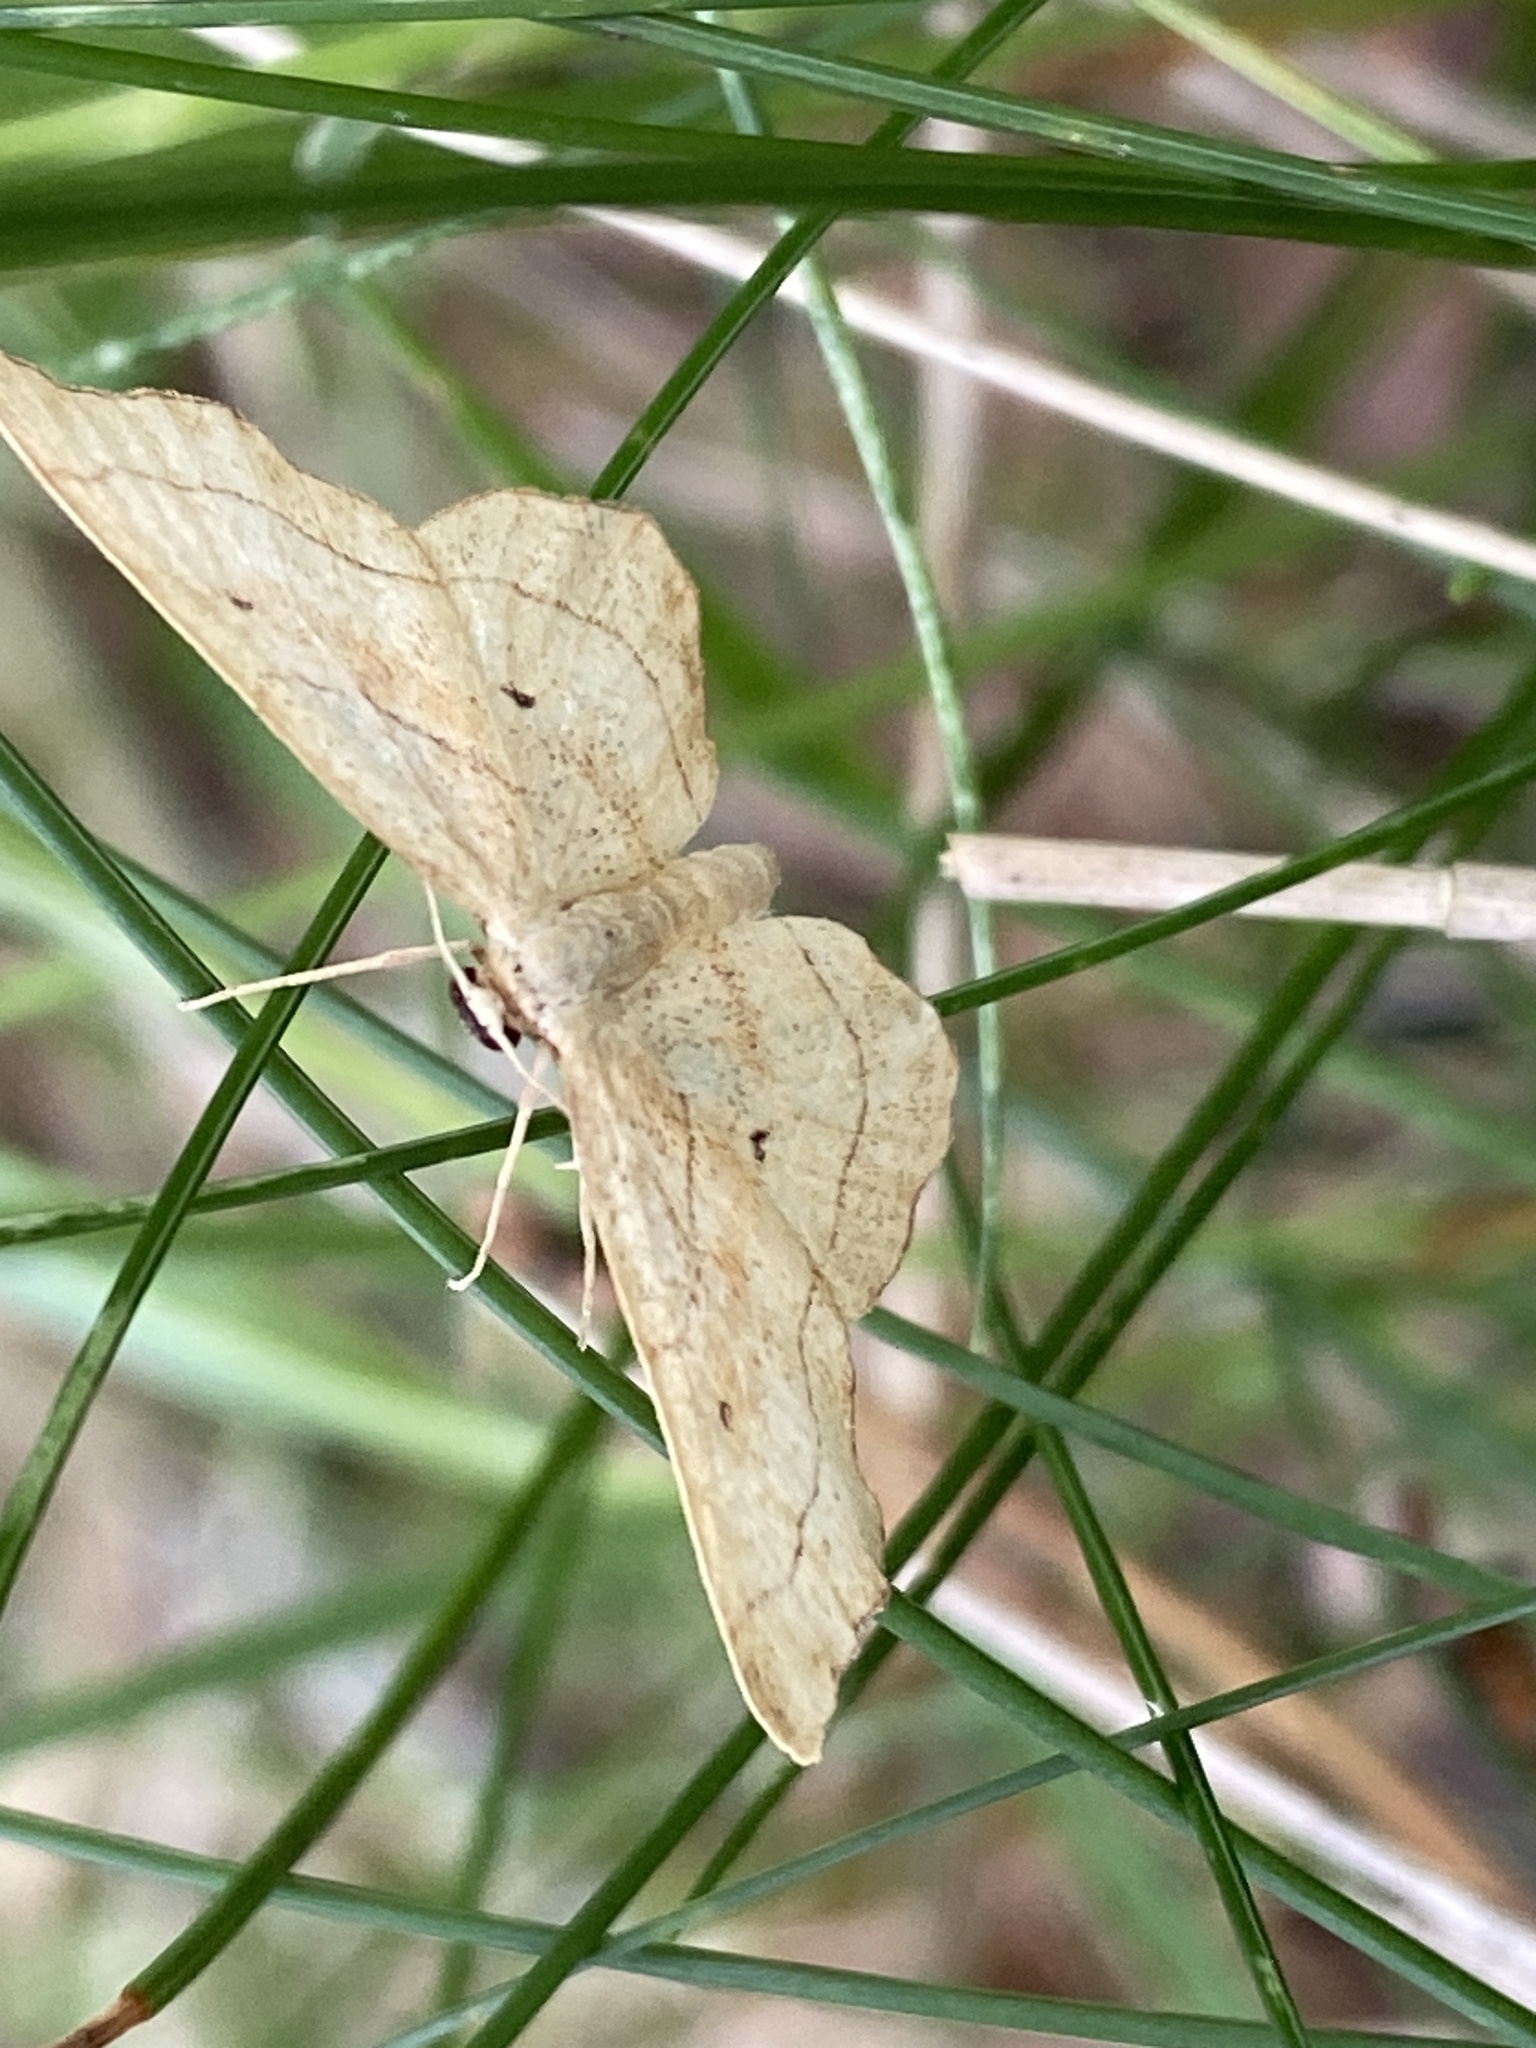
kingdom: Animalia
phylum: Arthropoda
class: Insecta
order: Lepidoptera
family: Geometridae
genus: Idaea
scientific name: Idaea emarginata
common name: Small scallop
